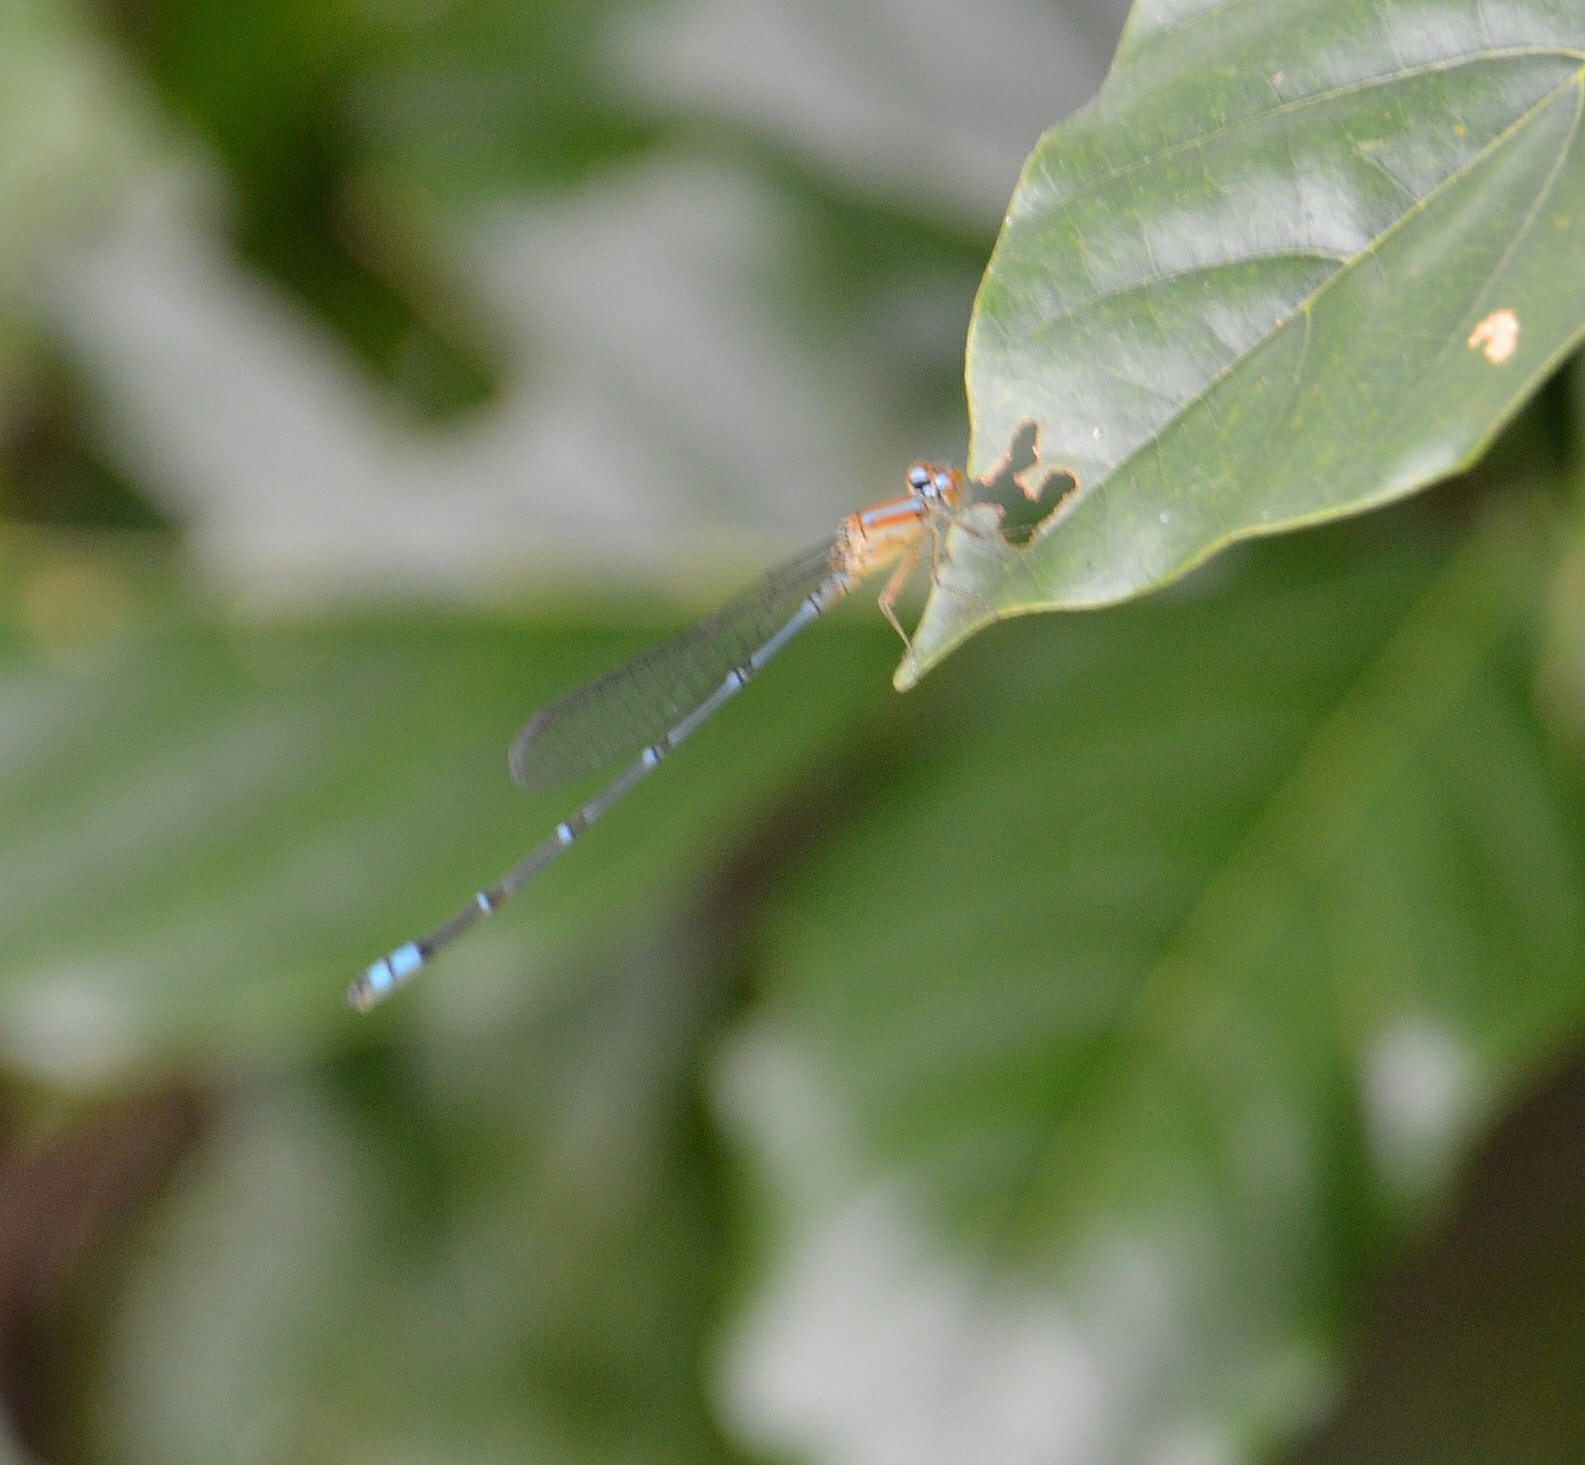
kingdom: Animalia
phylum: Arthropoda
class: Insecta
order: Odonata
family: Coenagrionidae
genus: Pseudagrion
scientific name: Pseudagrion microcephalum
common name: Blue riverdamsel
